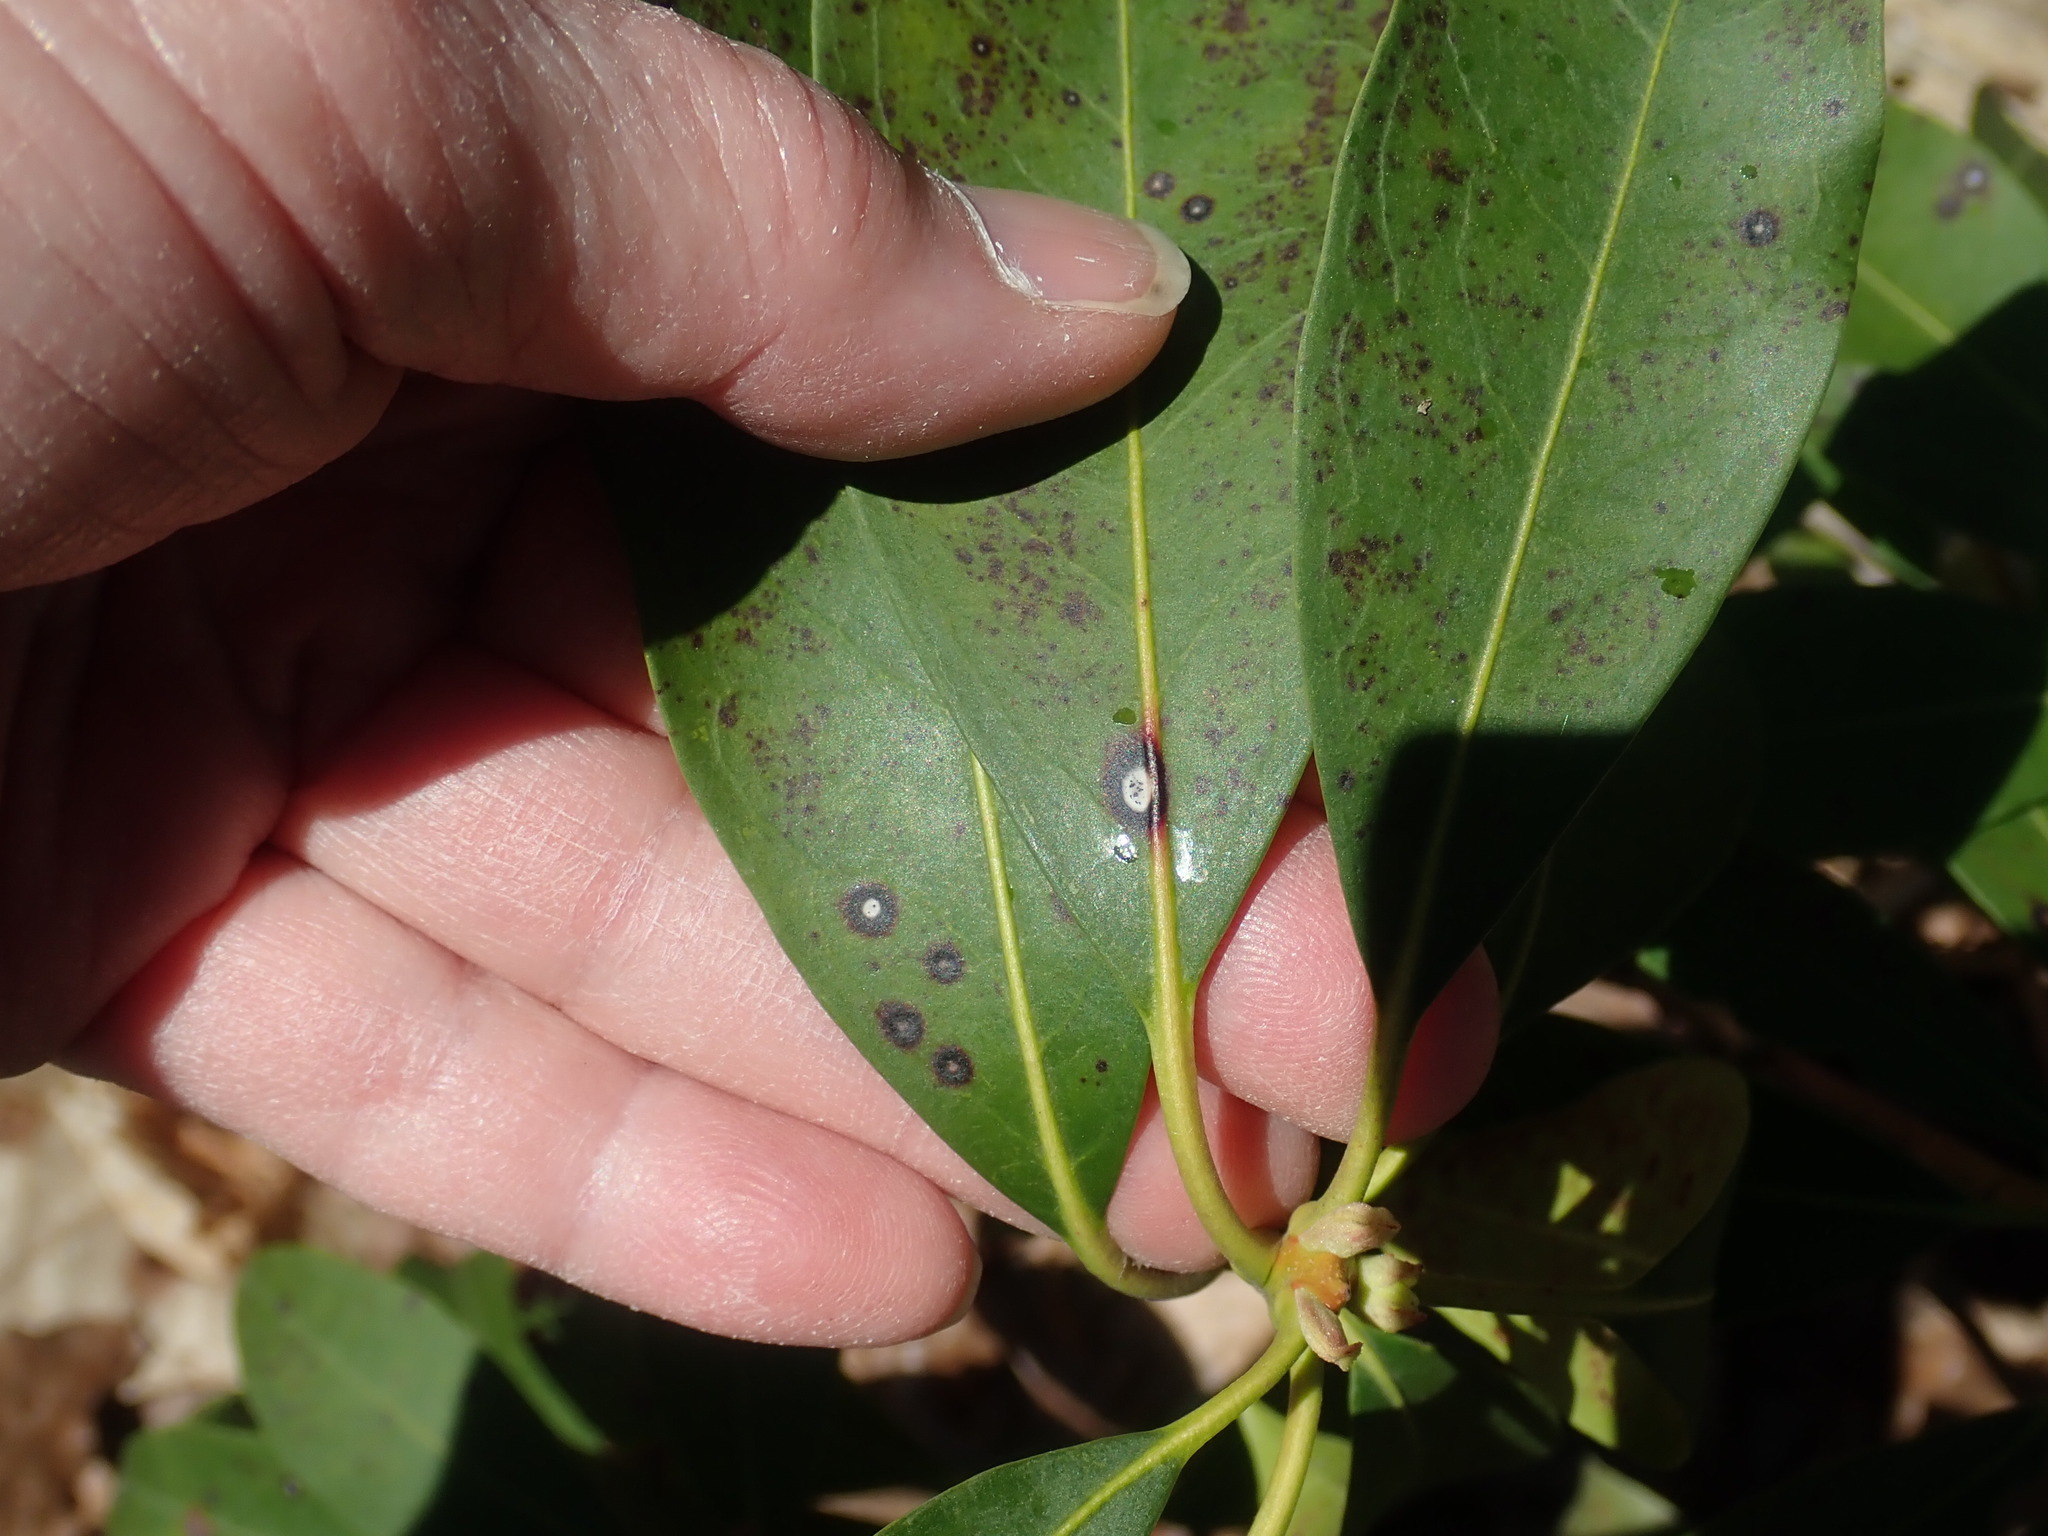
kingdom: Fungi
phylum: Ascomycota
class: Dothideomycetes
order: Mycosphaerellales
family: Mycosphaerellaceae
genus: Mycosphaerella
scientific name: Mycosphaerella colorata
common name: Mountain laurel leaf spot
